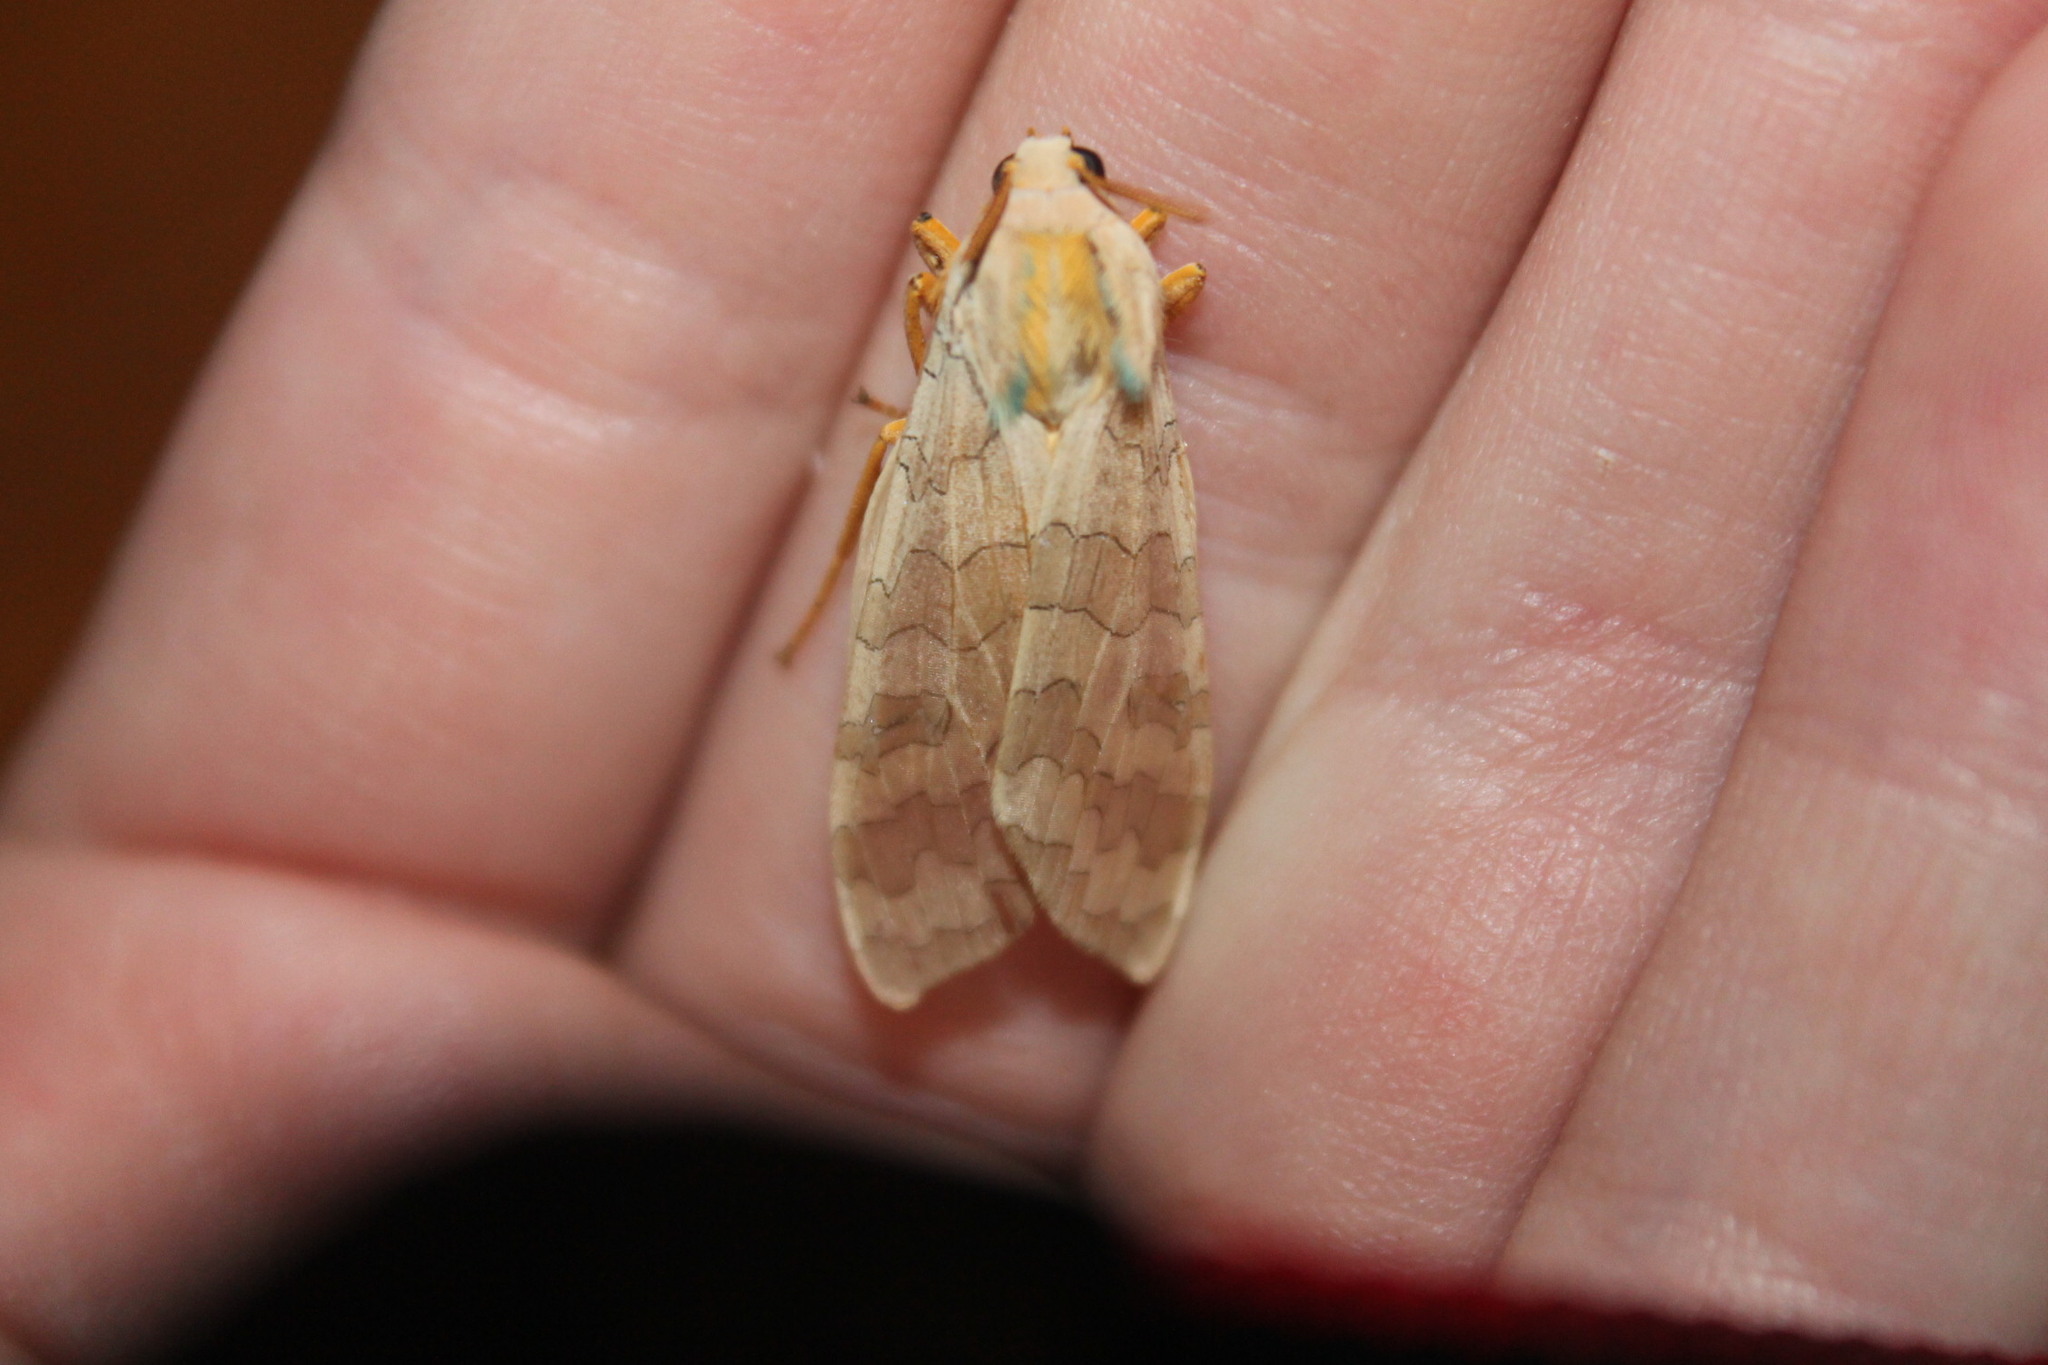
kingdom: Animalia
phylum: Arthropoda
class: Insecta
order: Lepidoptera
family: Erebidae
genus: Halysidota
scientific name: Halysidota
